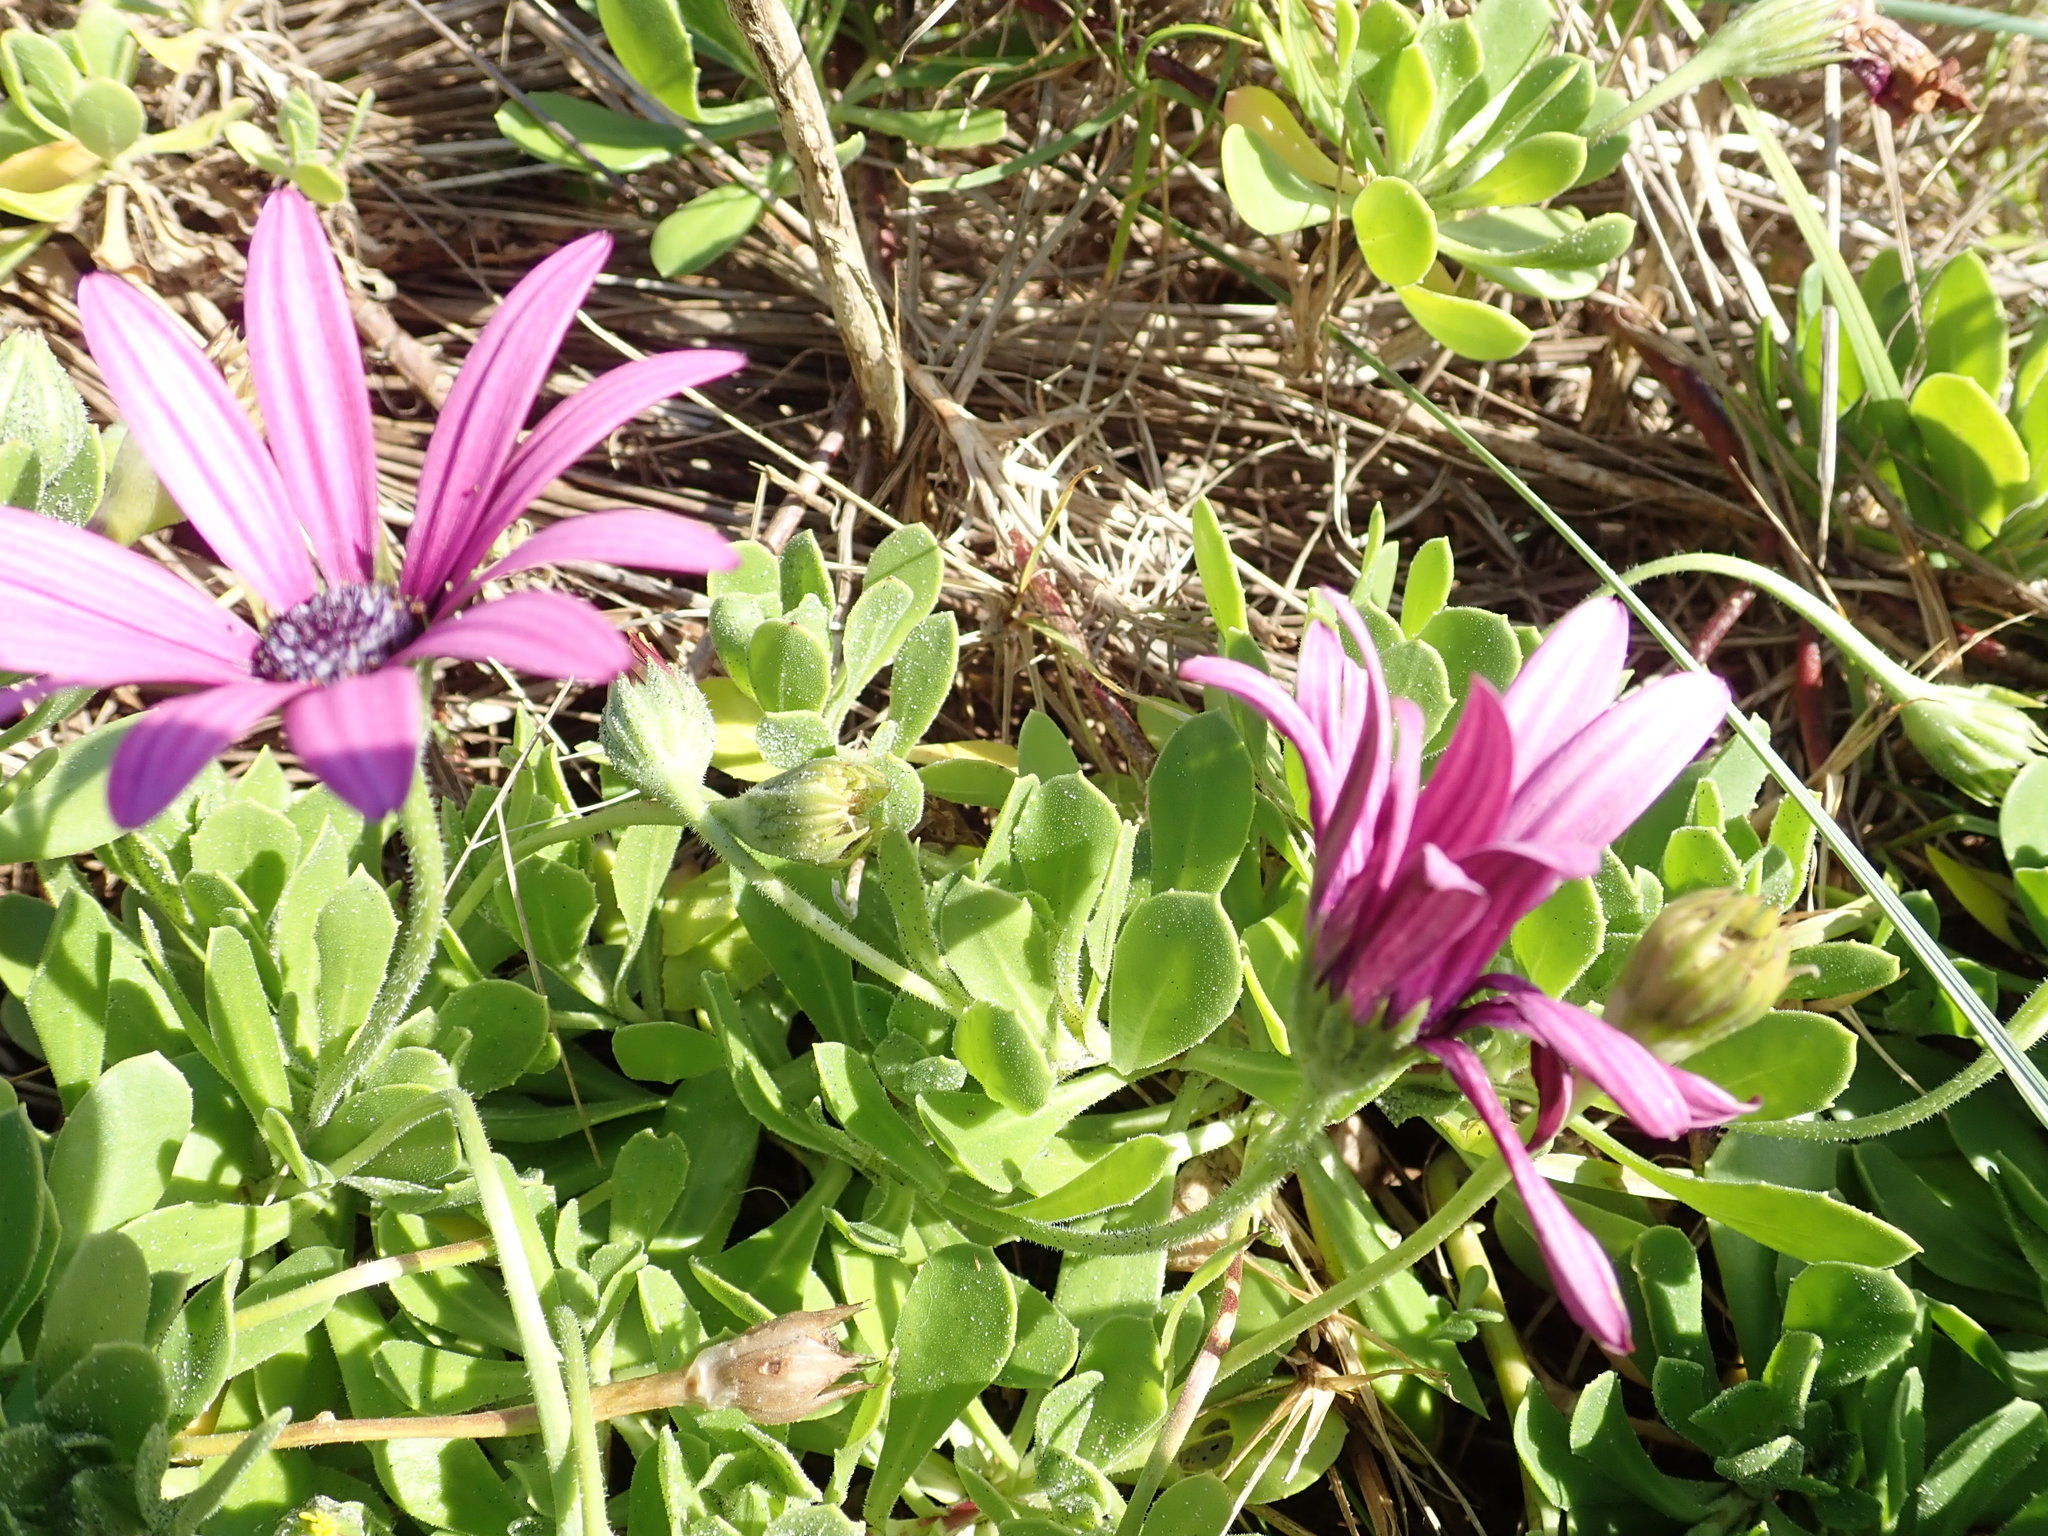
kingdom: Plantae
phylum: Tracheophyta
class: Magnoliopsida
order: Asterales
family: Asteraceae
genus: Dimorphotheca
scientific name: Dimorphotheca fruticosa
